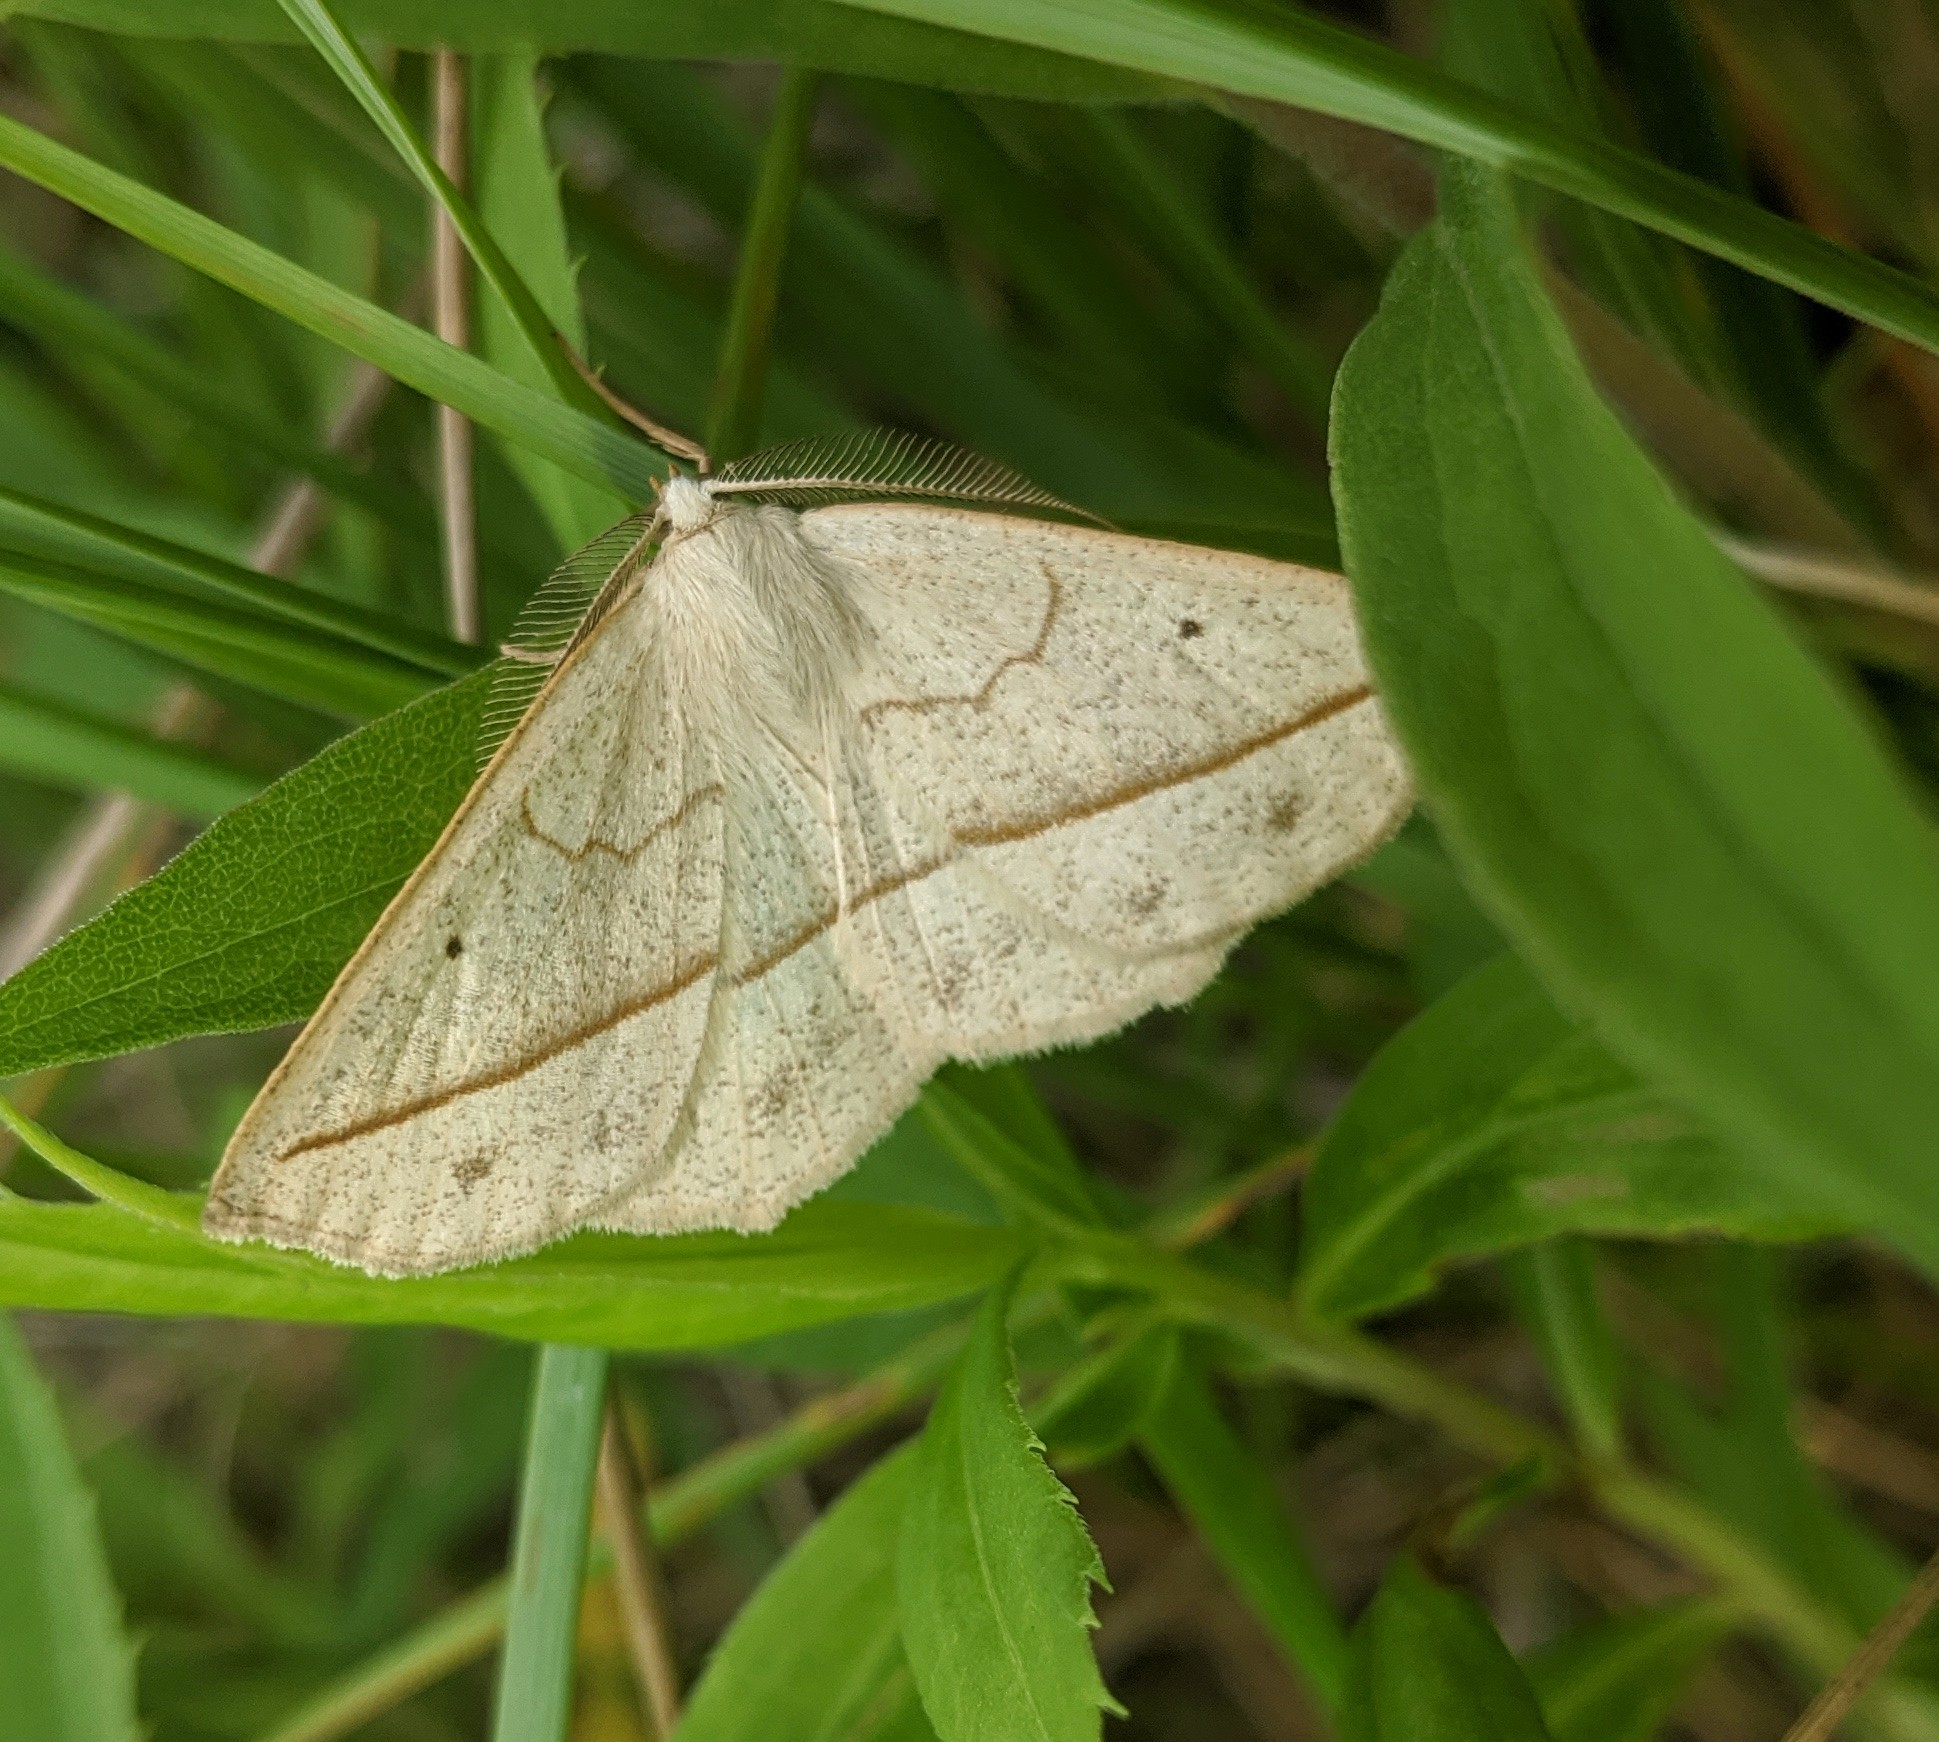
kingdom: Animalia
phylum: Arthropoda
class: Insecta
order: Lepidoptera
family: Geometridae
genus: Eusarca
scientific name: Eusarca confusaria
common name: Confused eusarca
